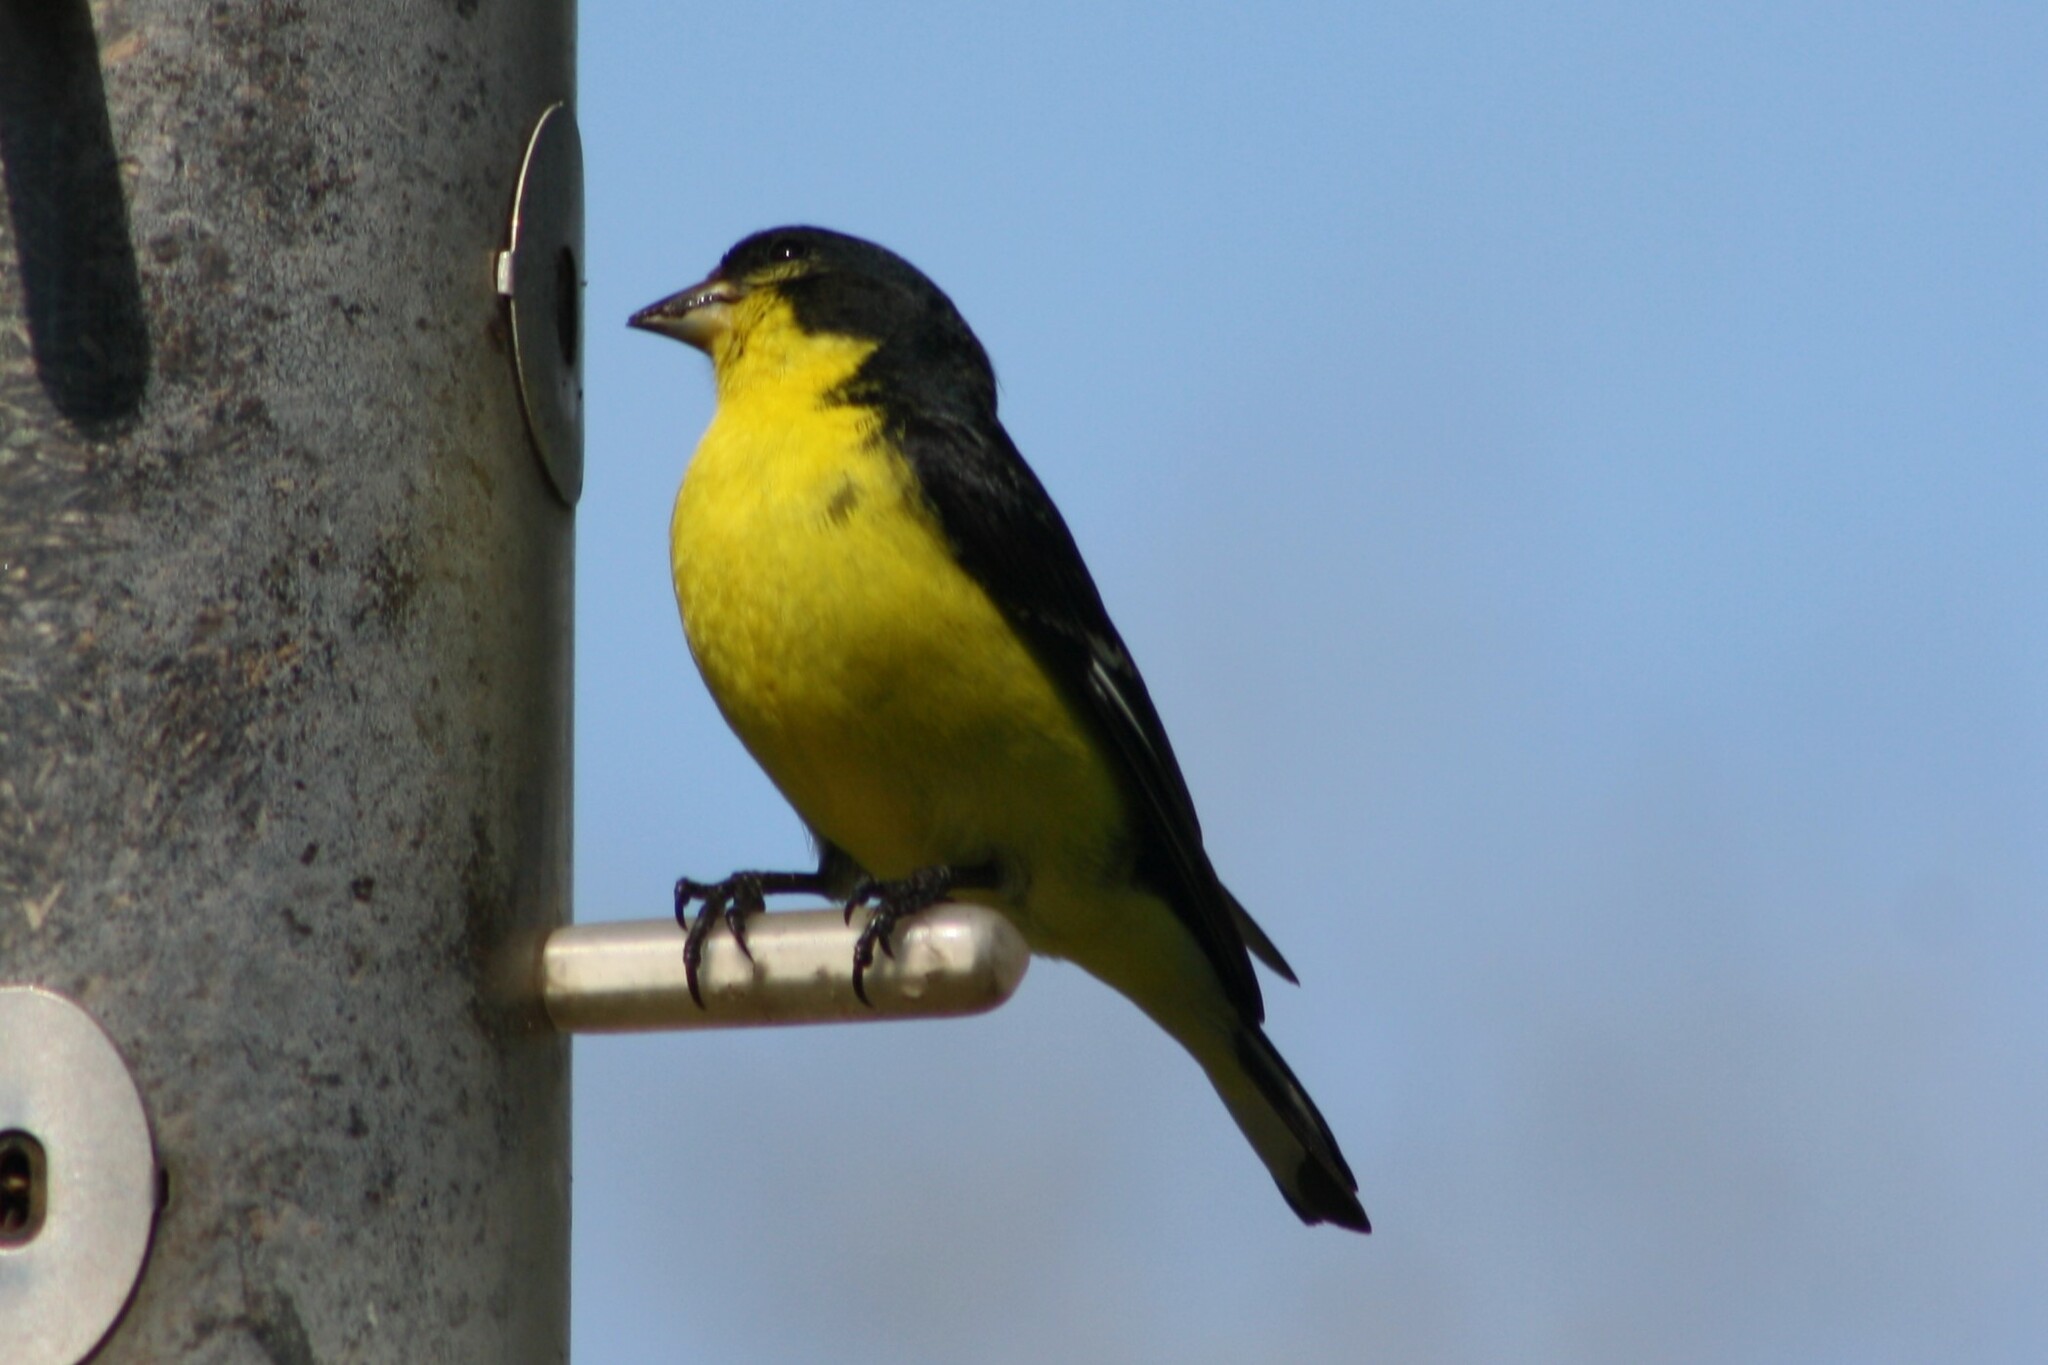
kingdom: Animalia
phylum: Chordata
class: Aves
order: Passeriformes
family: Fringillidae
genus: Spinus
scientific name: Spinus psaltria
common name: Lesser goldfinch
